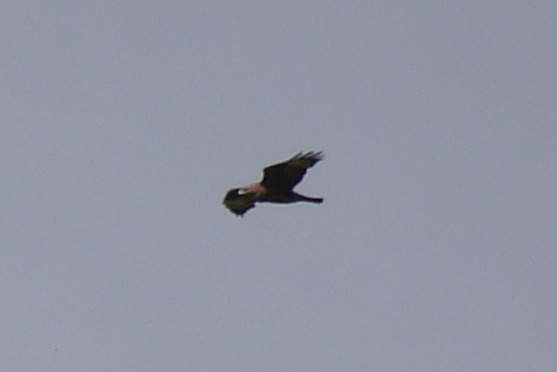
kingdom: Animalia
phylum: Chordata
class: Aves
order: Accipitriformes
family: Accipitridae
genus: Buteo
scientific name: Buteo buteo
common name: Common buzzard
